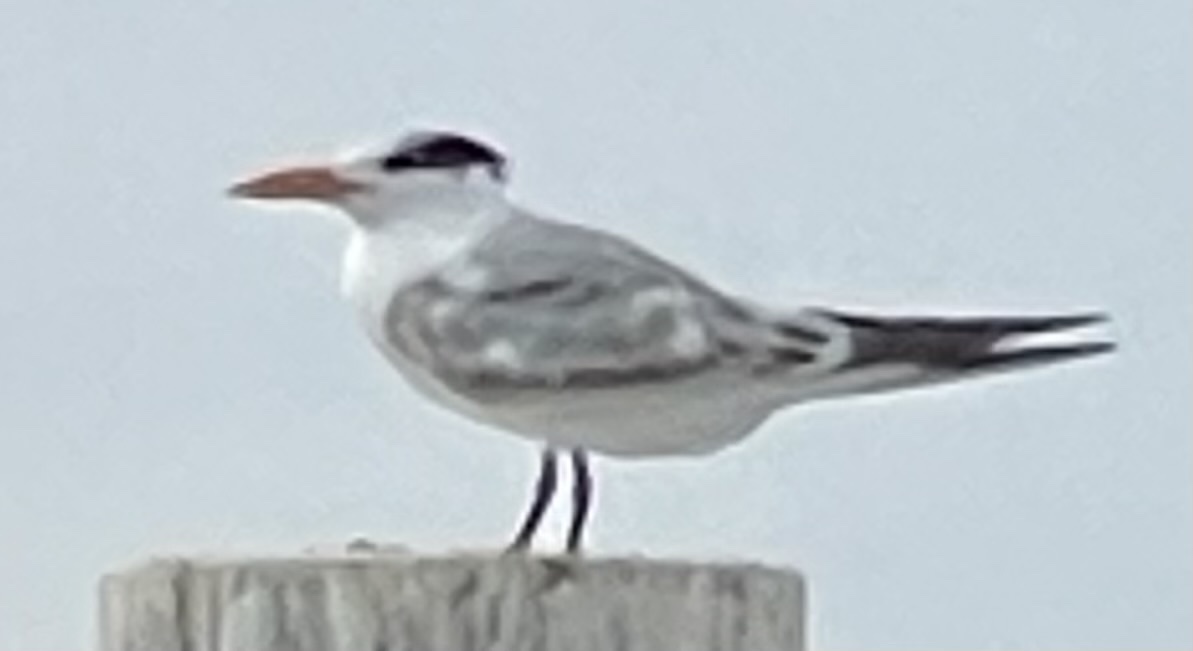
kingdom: Animalia
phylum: Chordata
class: Aves
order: Charadriiformes
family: Laridae
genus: Thalasseus
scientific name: Thalasseus maximus
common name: Royal tern
